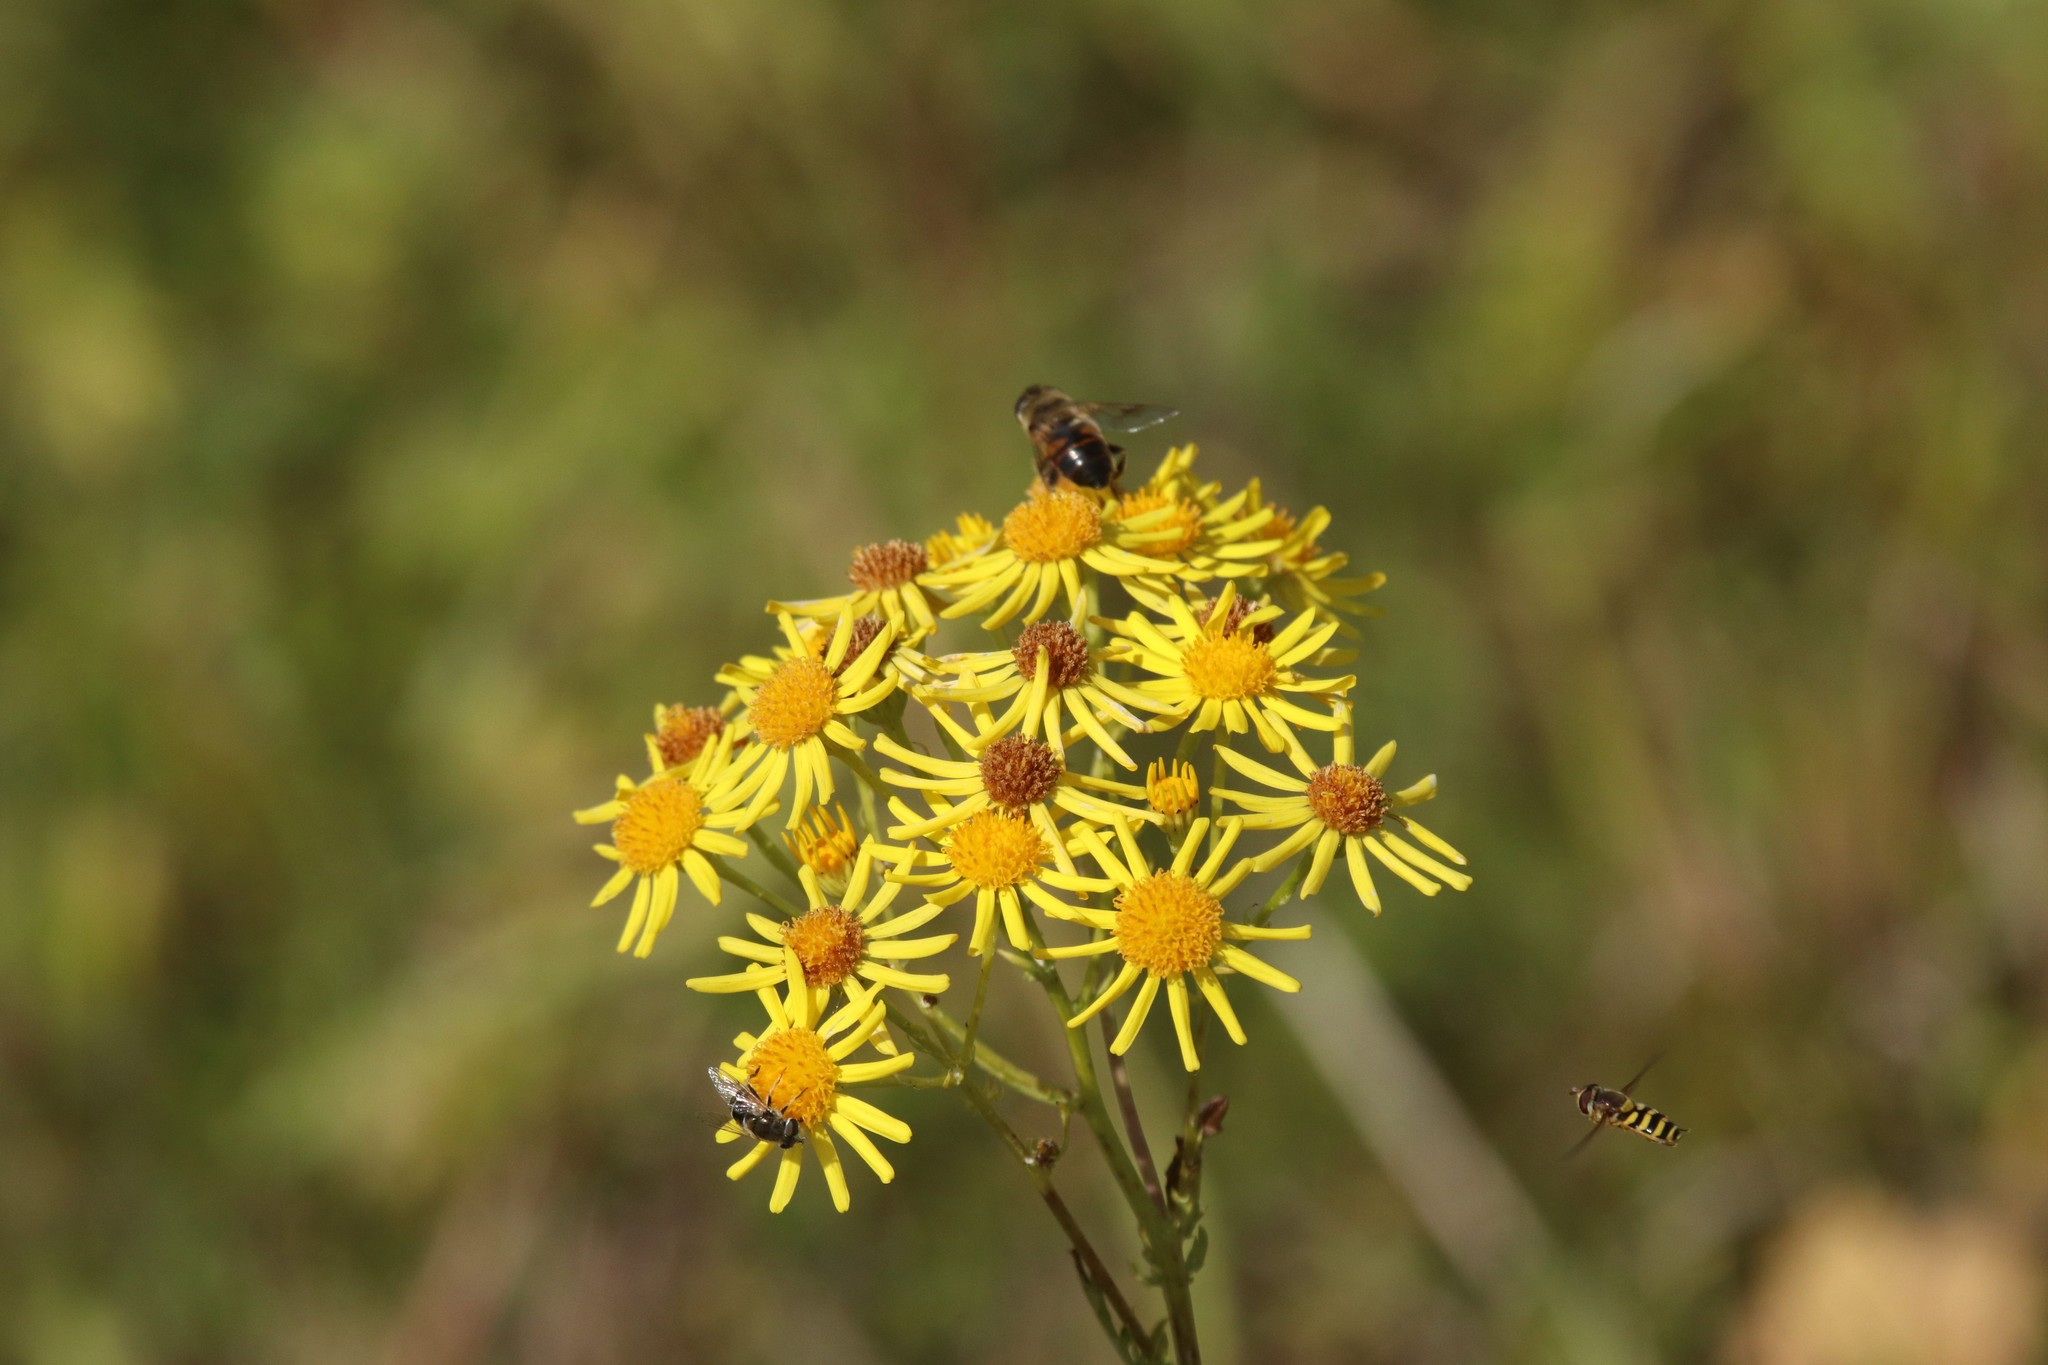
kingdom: Plantae
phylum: Tracheophyta
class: Magnoliopsida
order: Asterales
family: Asteraceae
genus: Jacobaea
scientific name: Jacobaea vulgaris
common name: Stinking willie
